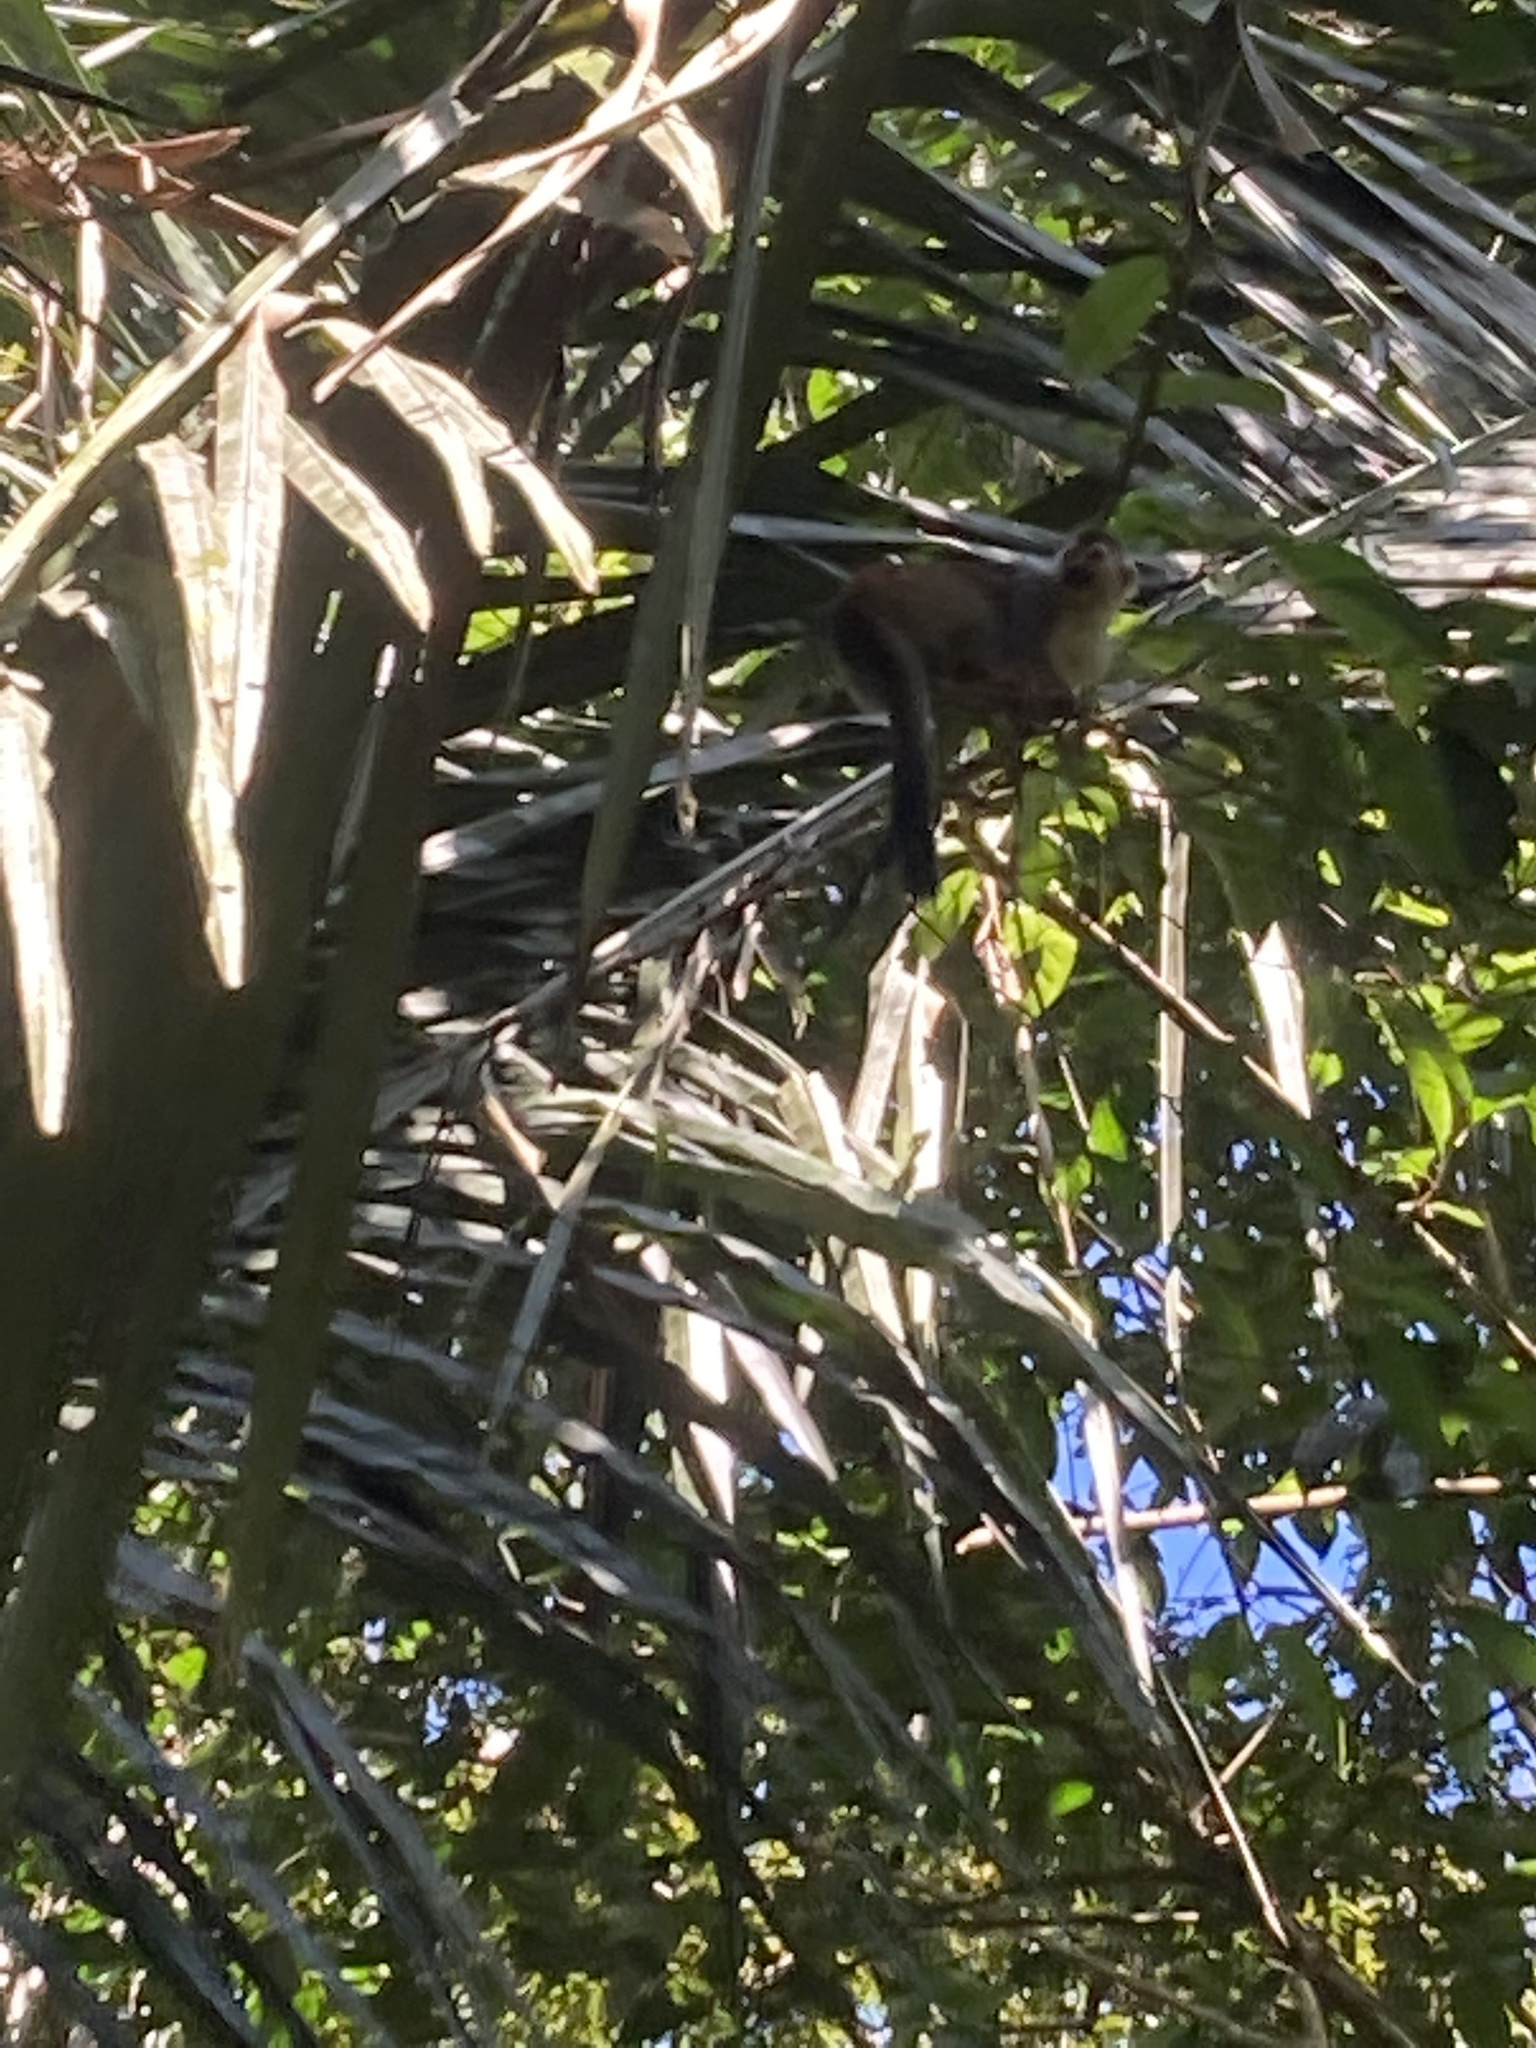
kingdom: Animalia
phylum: Chordata
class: Mammalia
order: Primates
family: Cebidae
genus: Saimiri
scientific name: Saimiri oerstedii
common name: Central american squirrel monkey
